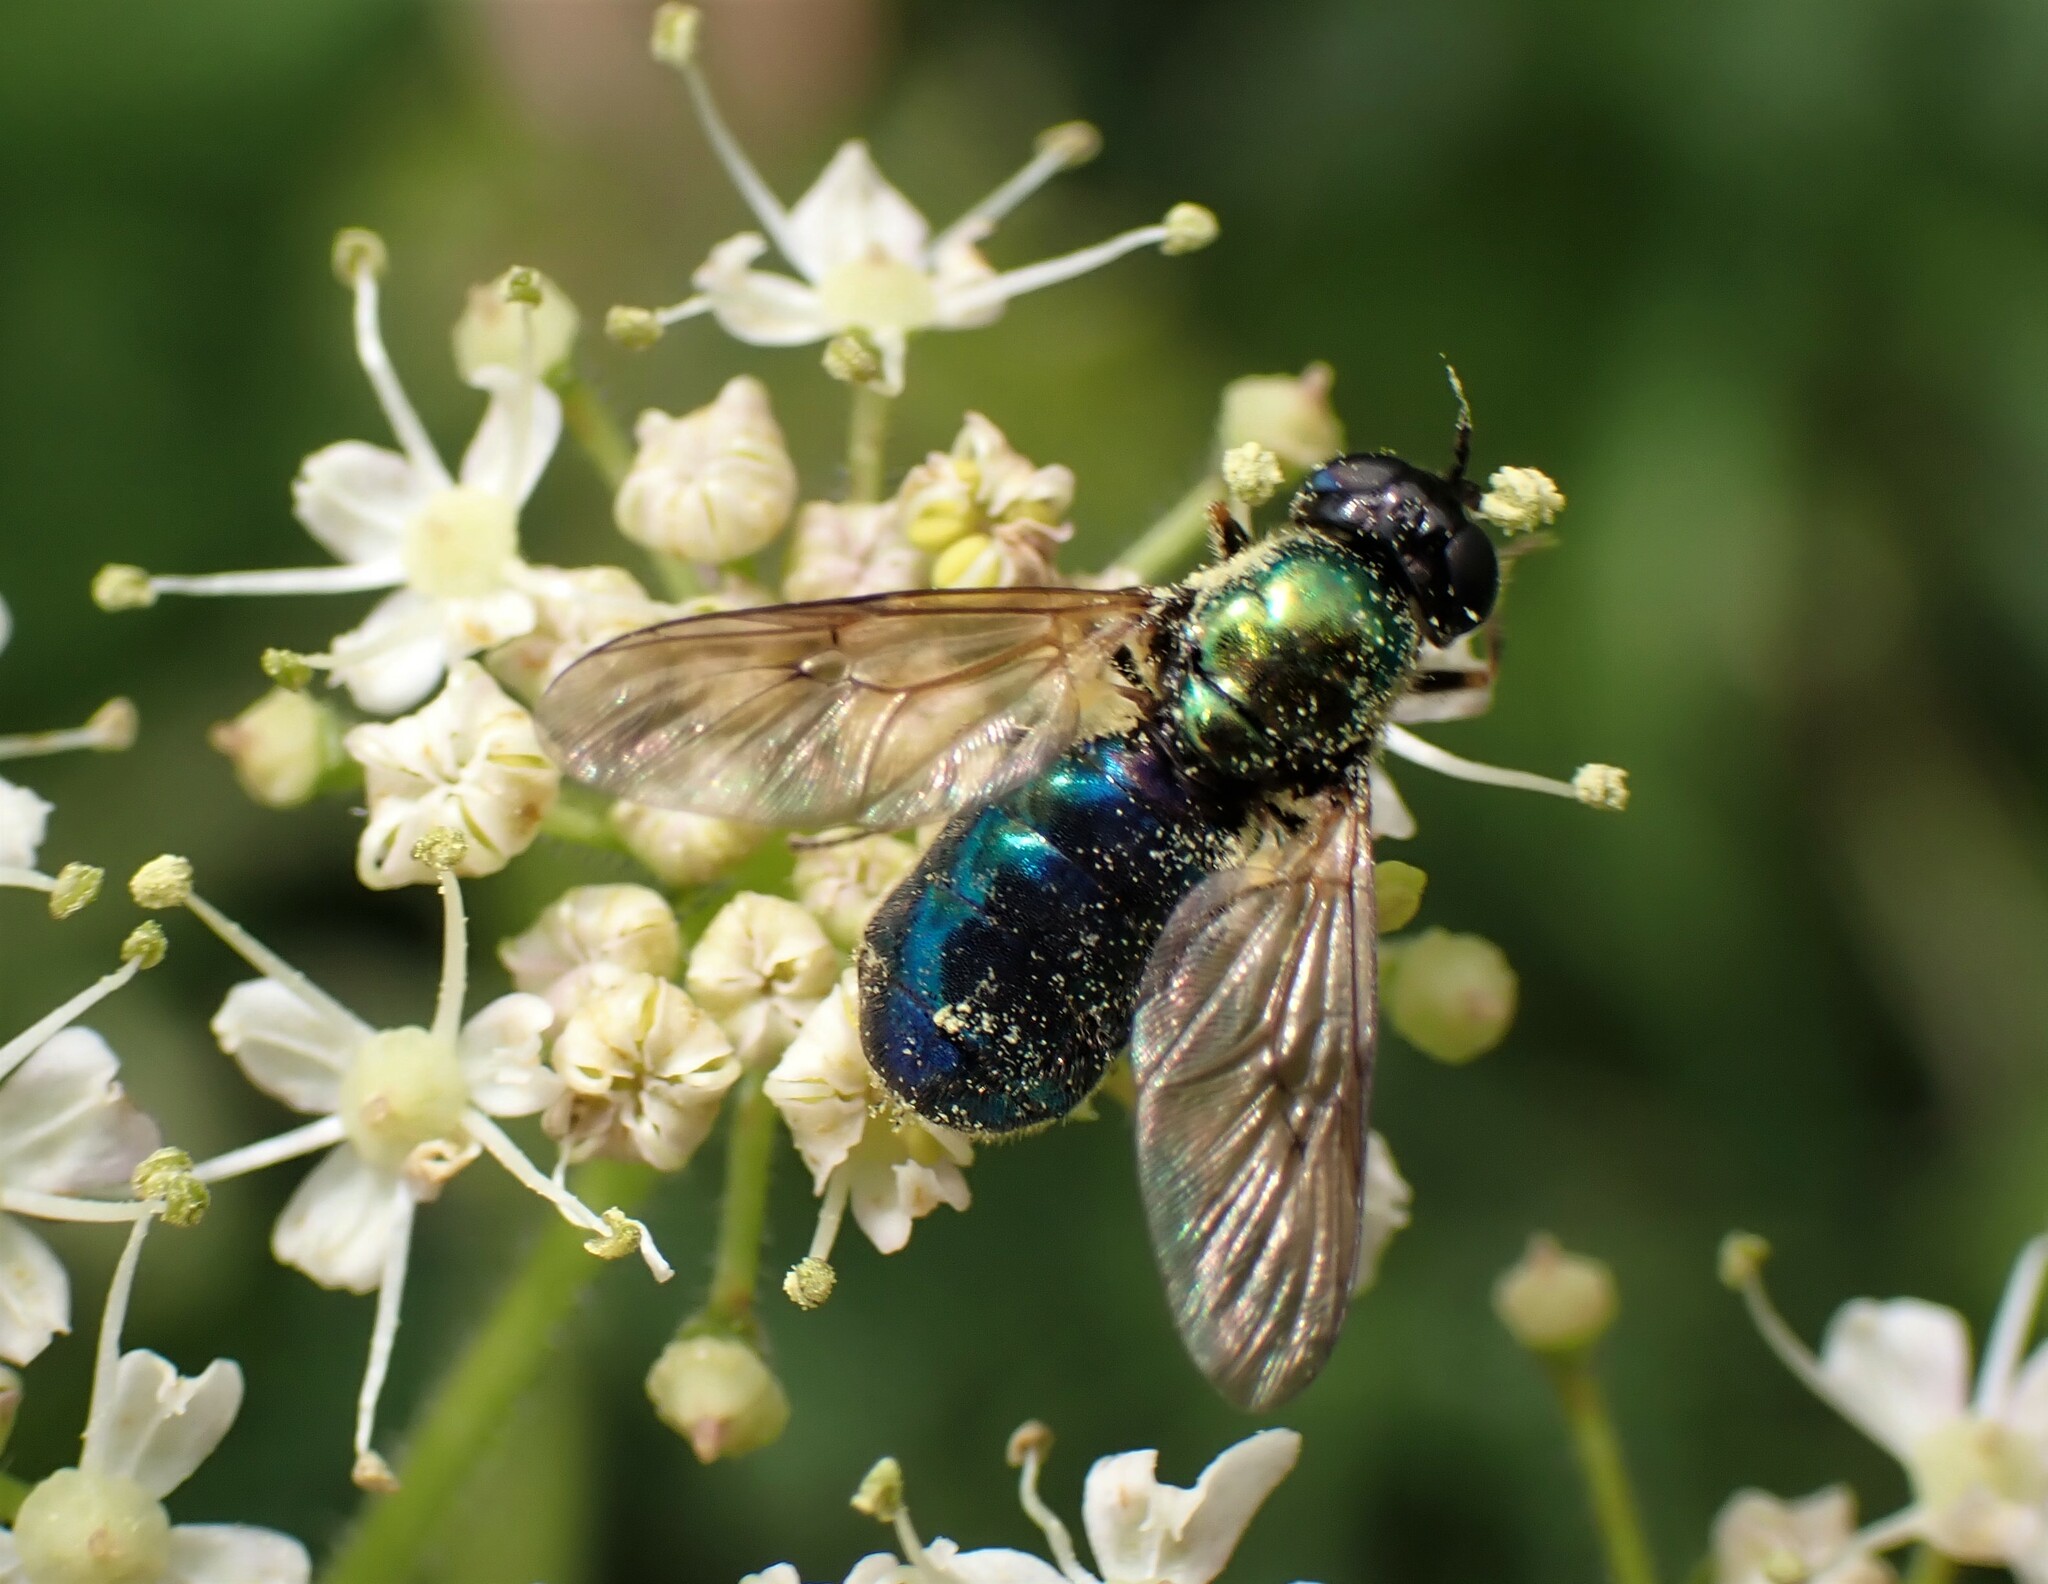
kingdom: Animalia
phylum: Arthropoda
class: Insecta
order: Diptera
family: Stratiomyidae
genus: Chloromyia
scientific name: Chloromyia formosa
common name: Soldier fly
